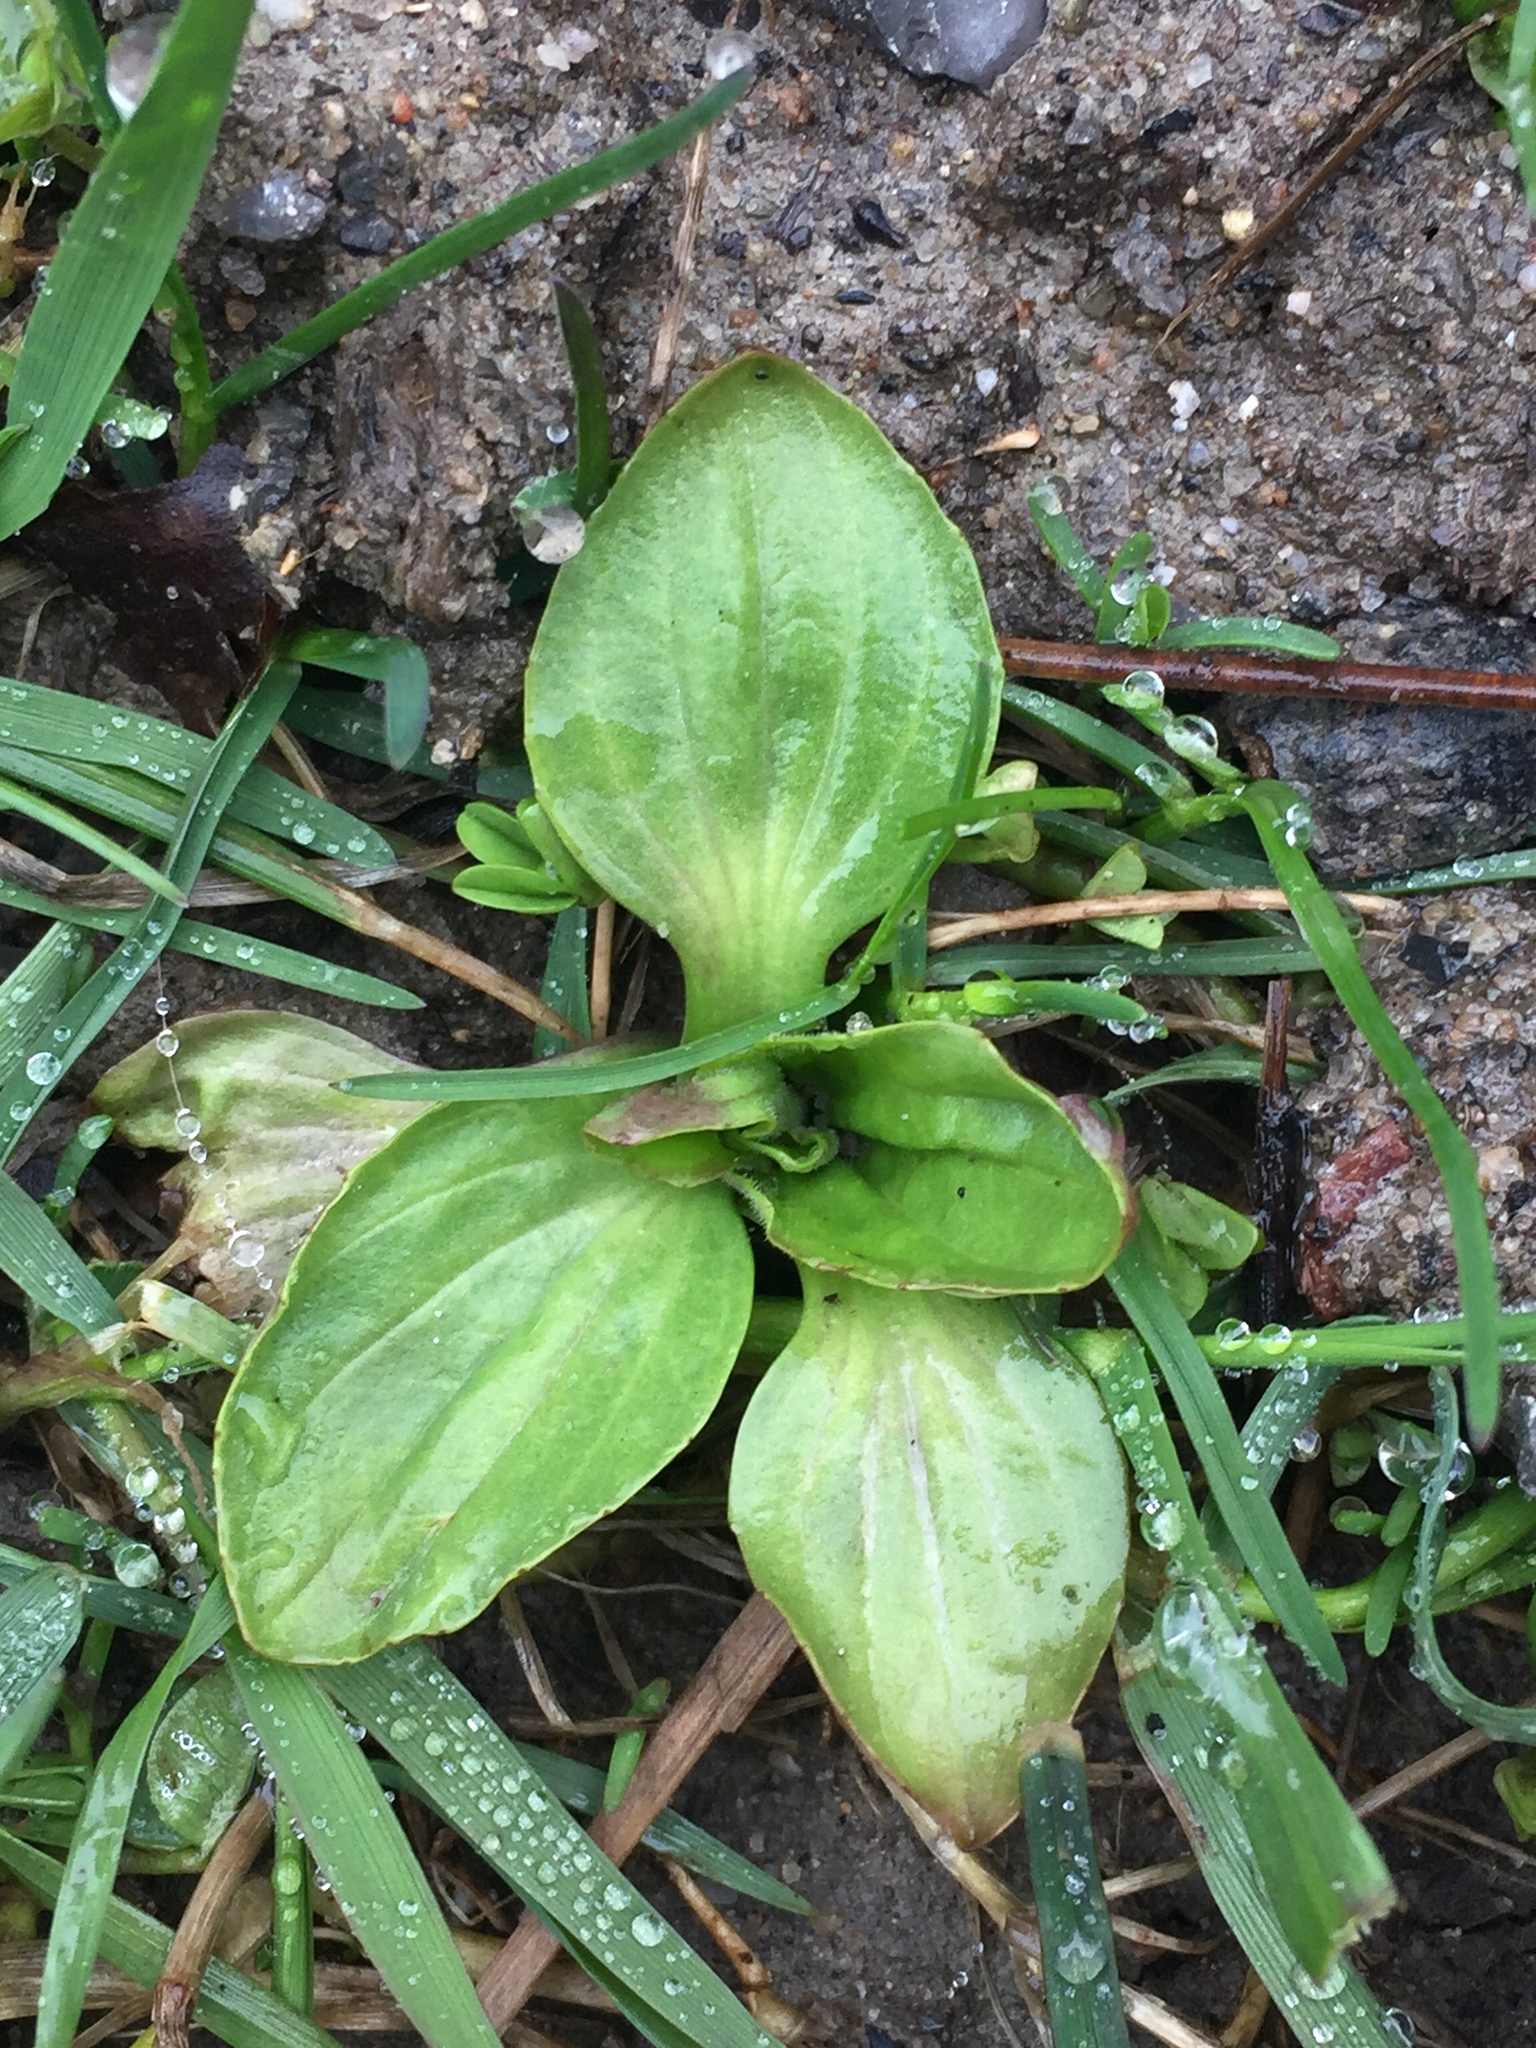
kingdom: Plantae
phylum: Tracheophyta
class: Magnoliopsida
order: Lamiales
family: Plantaginaceae
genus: Plantago
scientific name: Plantago major
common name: Common plantain
